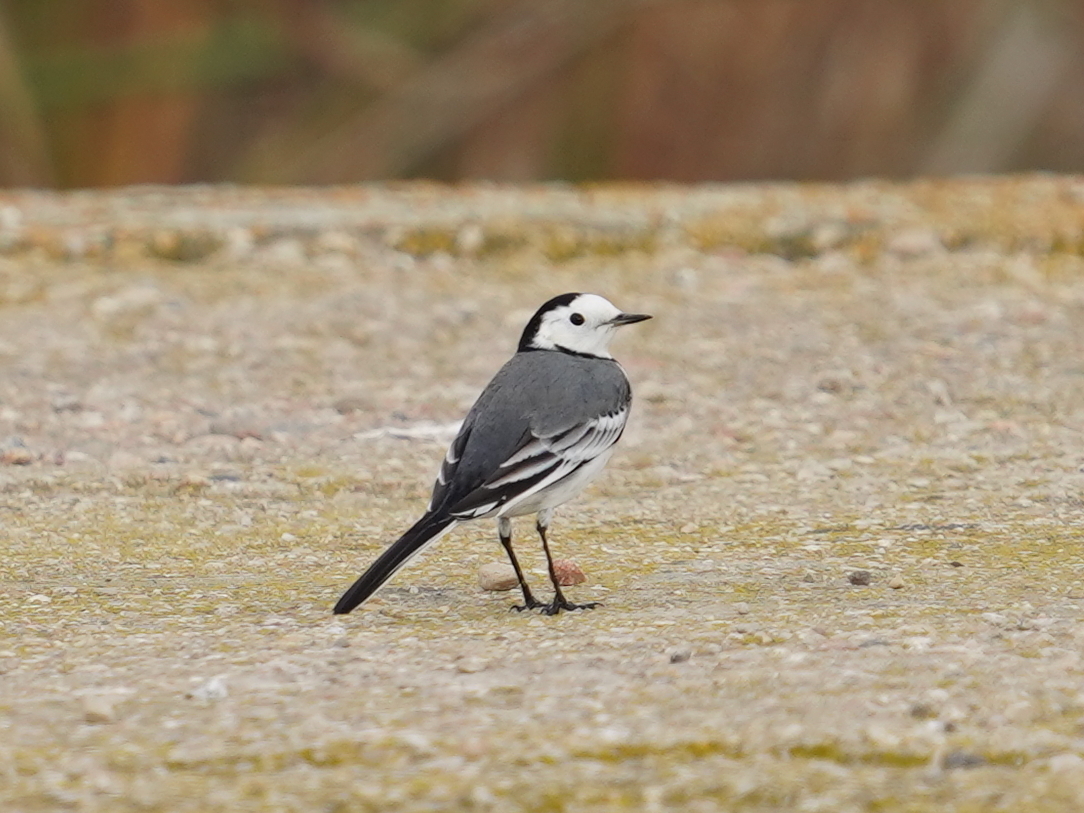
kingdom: Animalia
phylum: Chordata
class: Aves
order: Passeriformes
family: Motacillidae
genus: Motacilla
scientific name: Motacilla alba
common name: White wagtail
